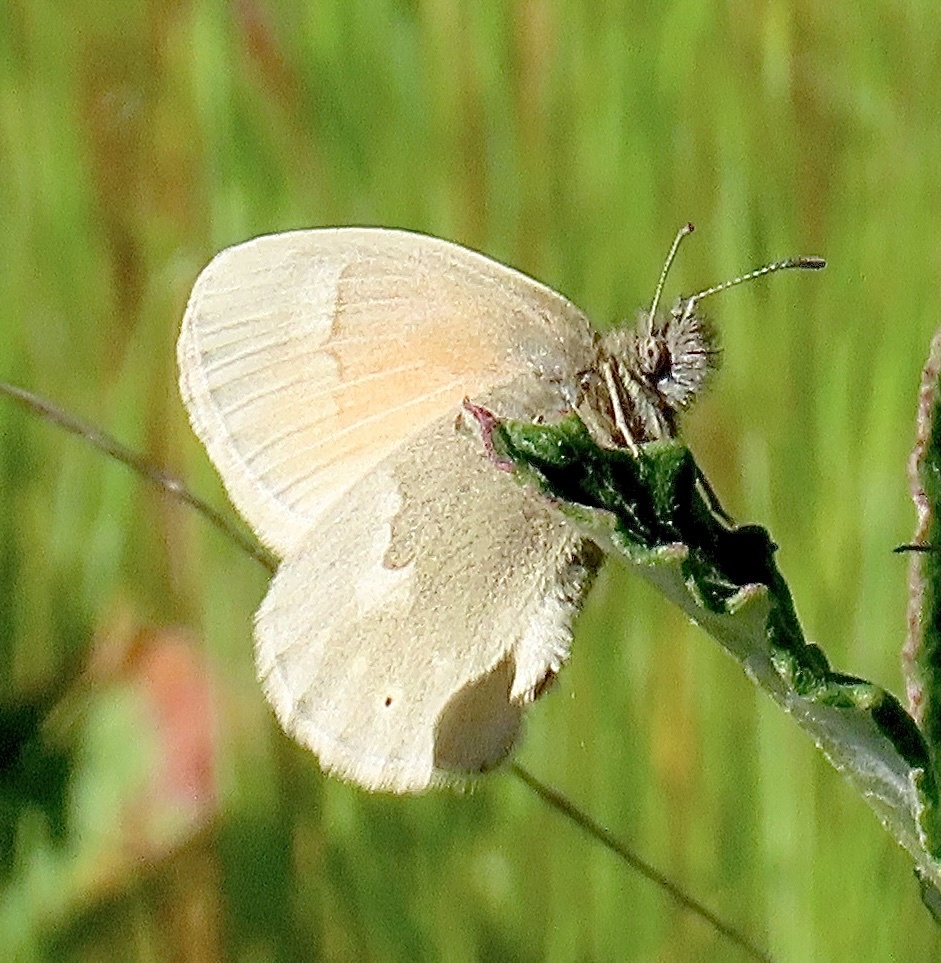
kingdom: Animalia
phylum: Arthropoda
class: Insecta
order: Lepidoptera
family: Nymphalidae
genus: Coenonympha
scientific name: Coenonympha california
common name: Common ringlet
